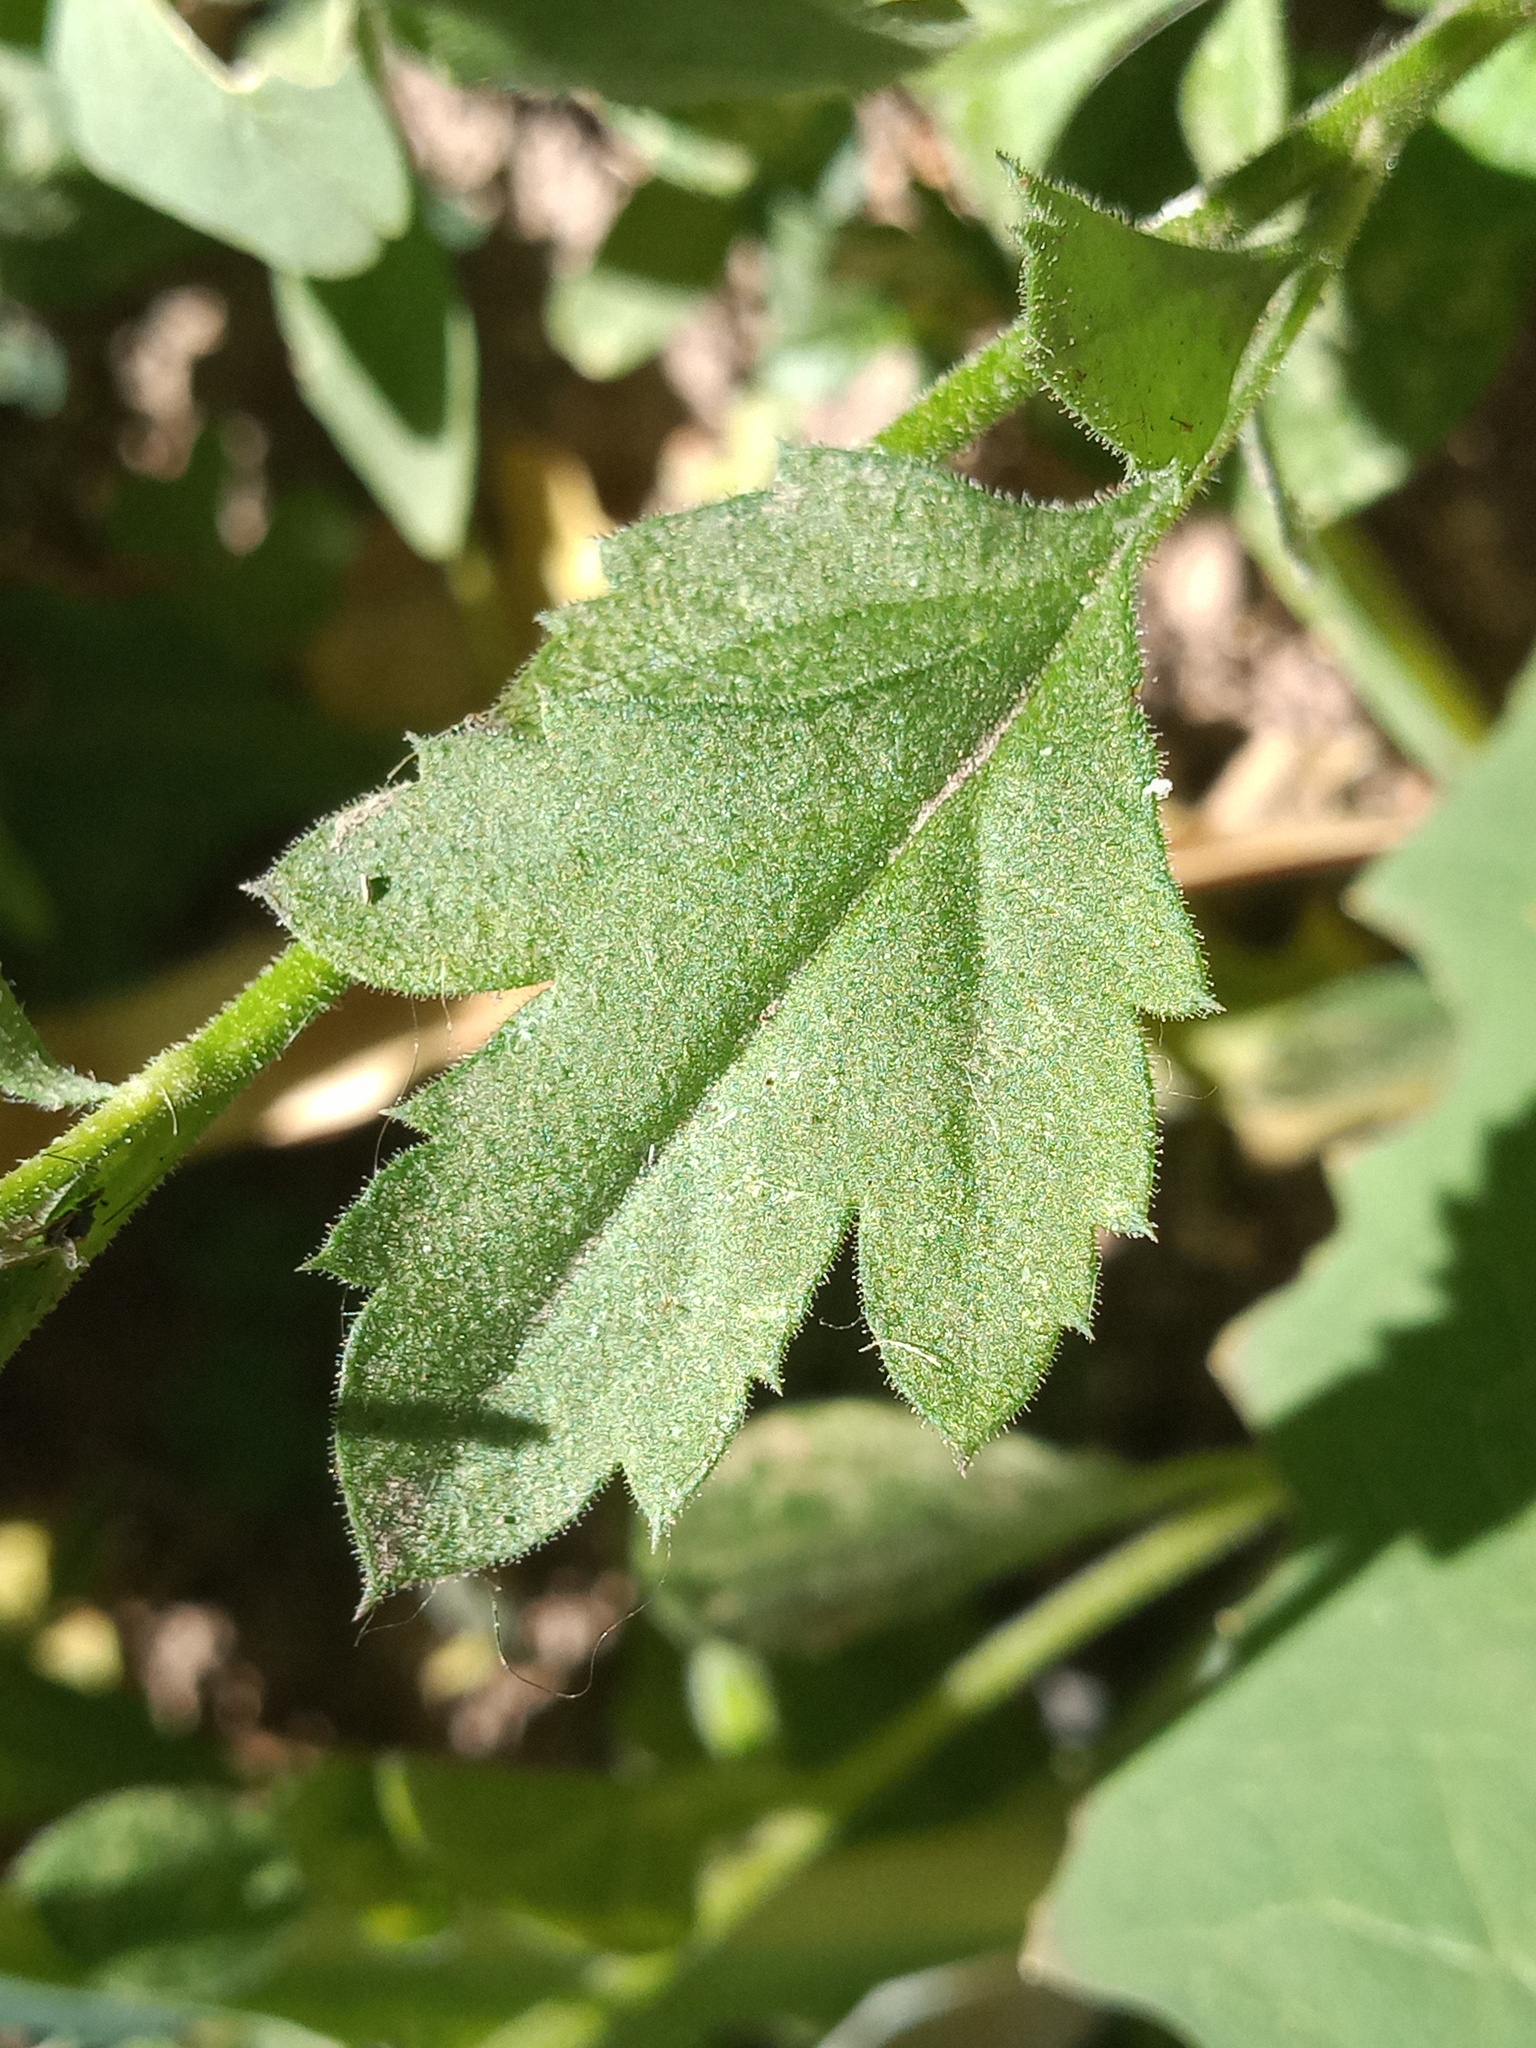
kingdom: Plantae
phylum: Tracheophyta
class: Magnoliopsida
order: Ericales
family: Polemoniaceae
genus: Giliastrum
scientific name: Giliastrum incisum
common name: Splitleaf gilia
